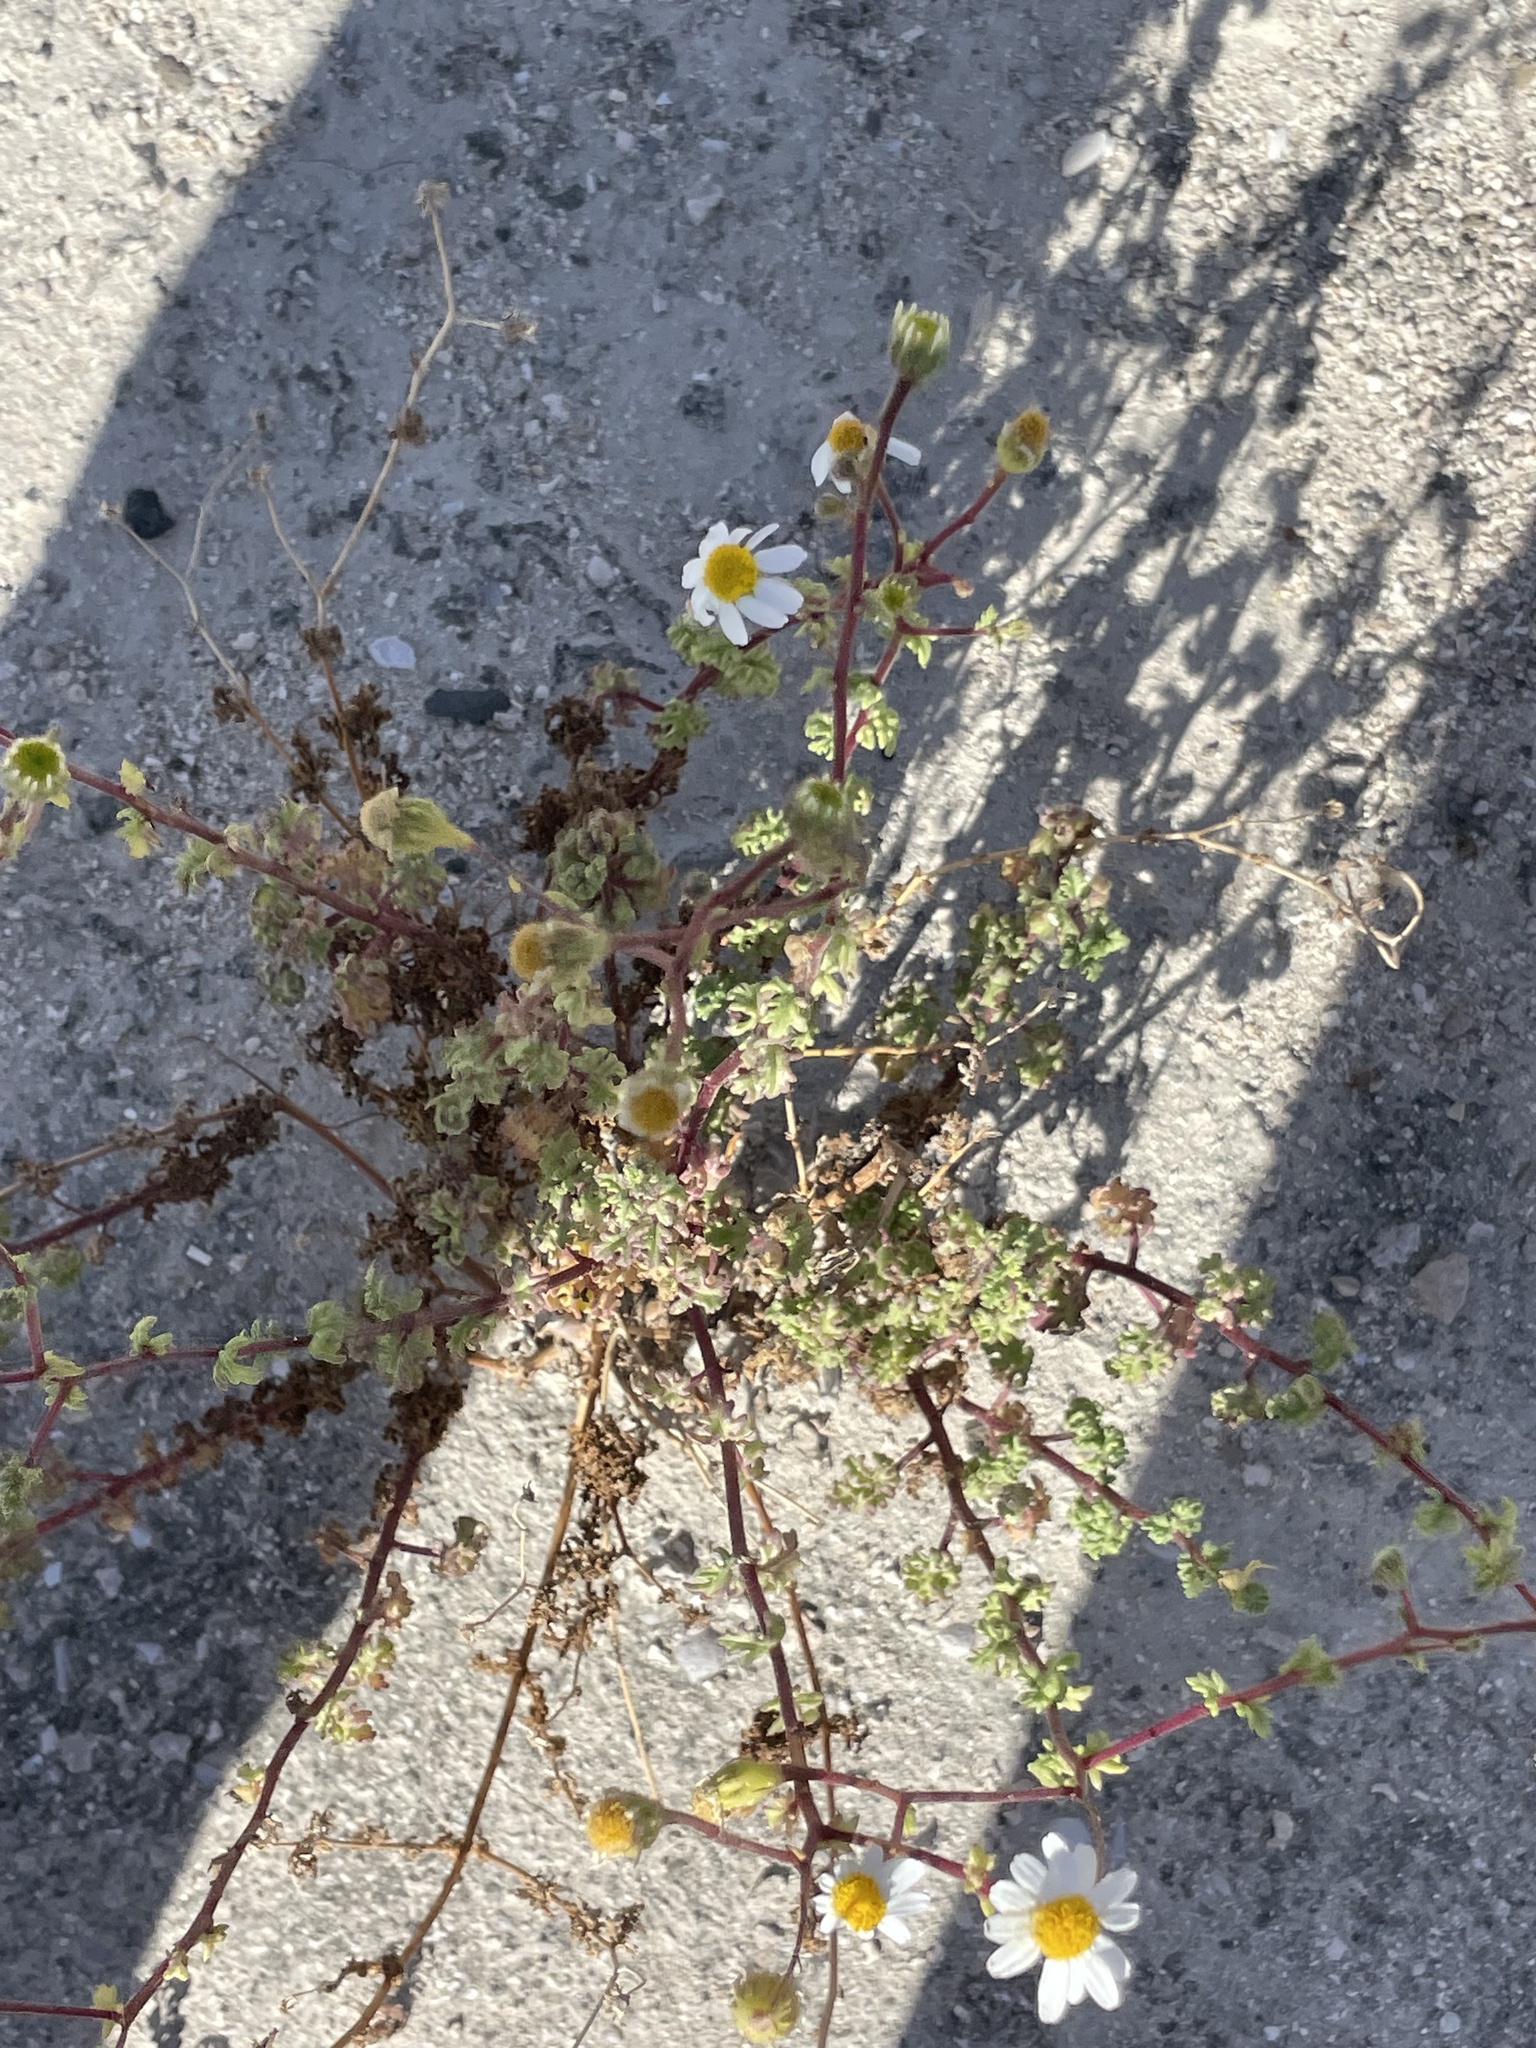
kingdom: Plantae
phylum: Tracheophyta
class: Magnoliopsida
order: Asterales
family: Asteraceae
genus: Perityle
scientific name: Perityle crassifolia
